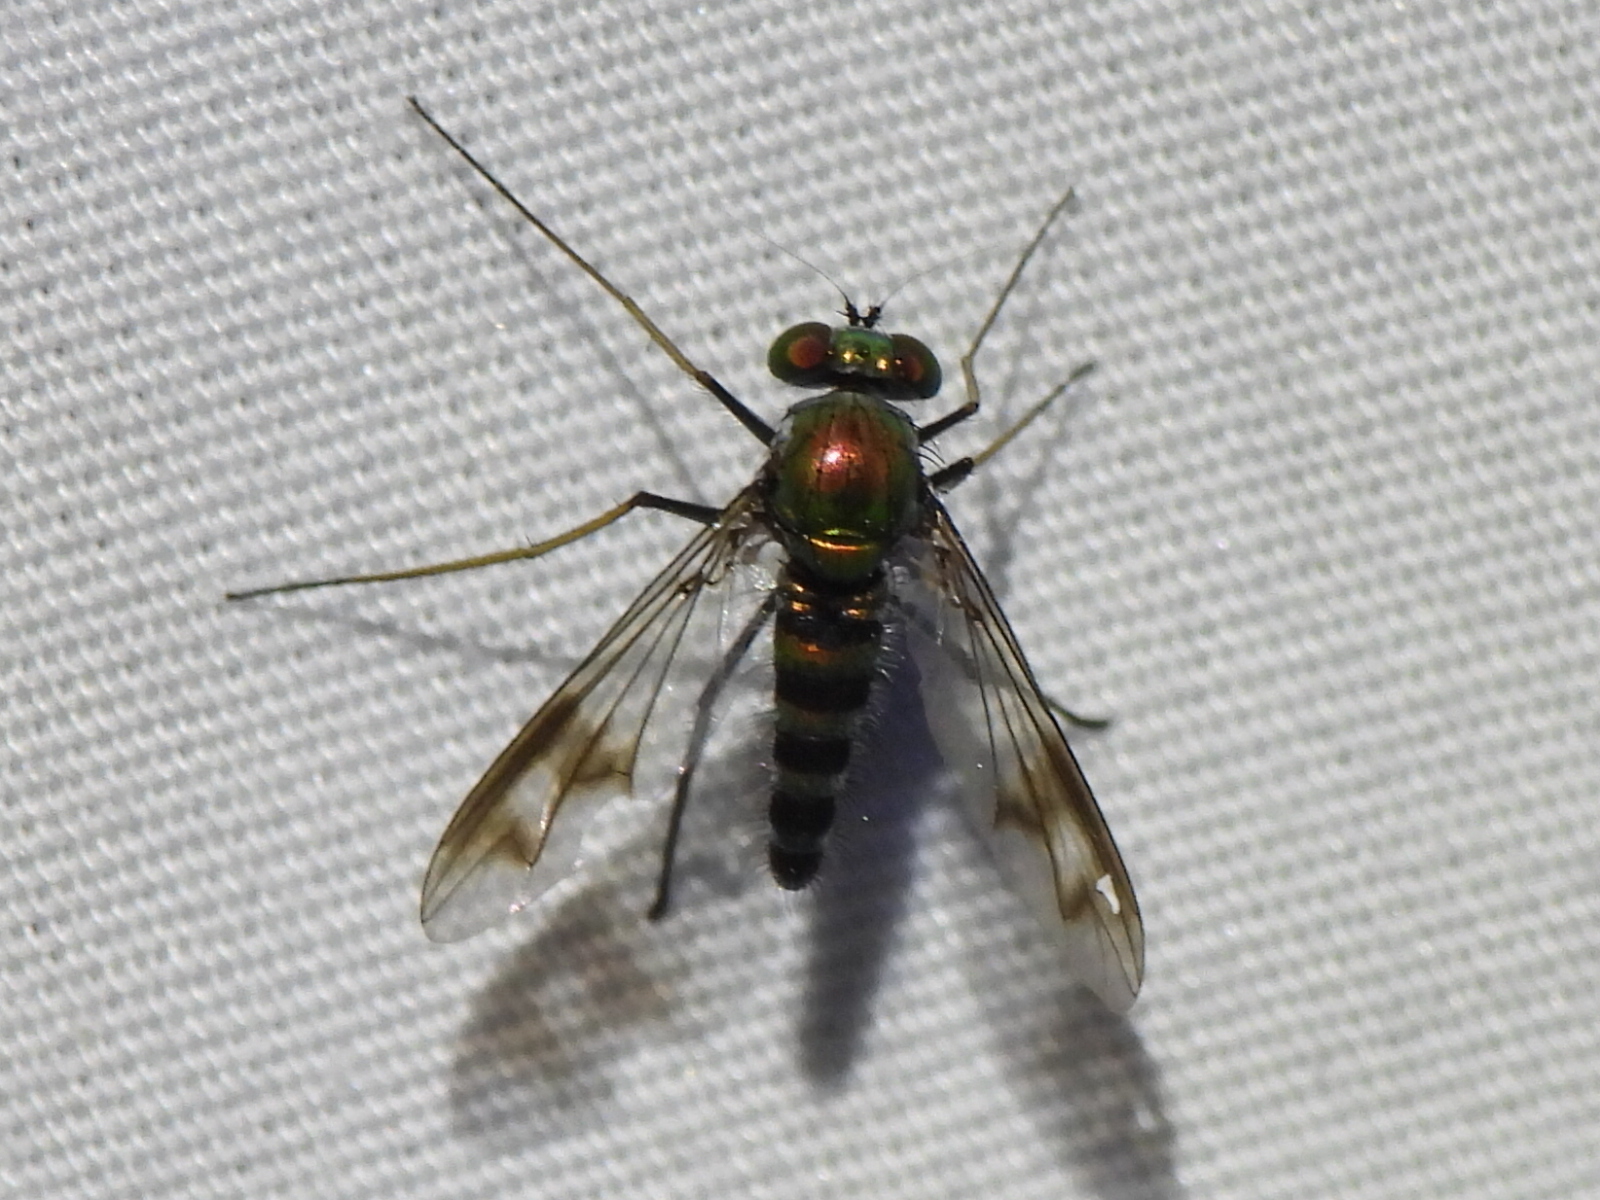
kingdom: Animalia
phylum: Arthropoda
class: Insecta
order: Diptera
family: Dolichopodidae
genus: Condylostylus
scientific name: Condylostylus leonardi
